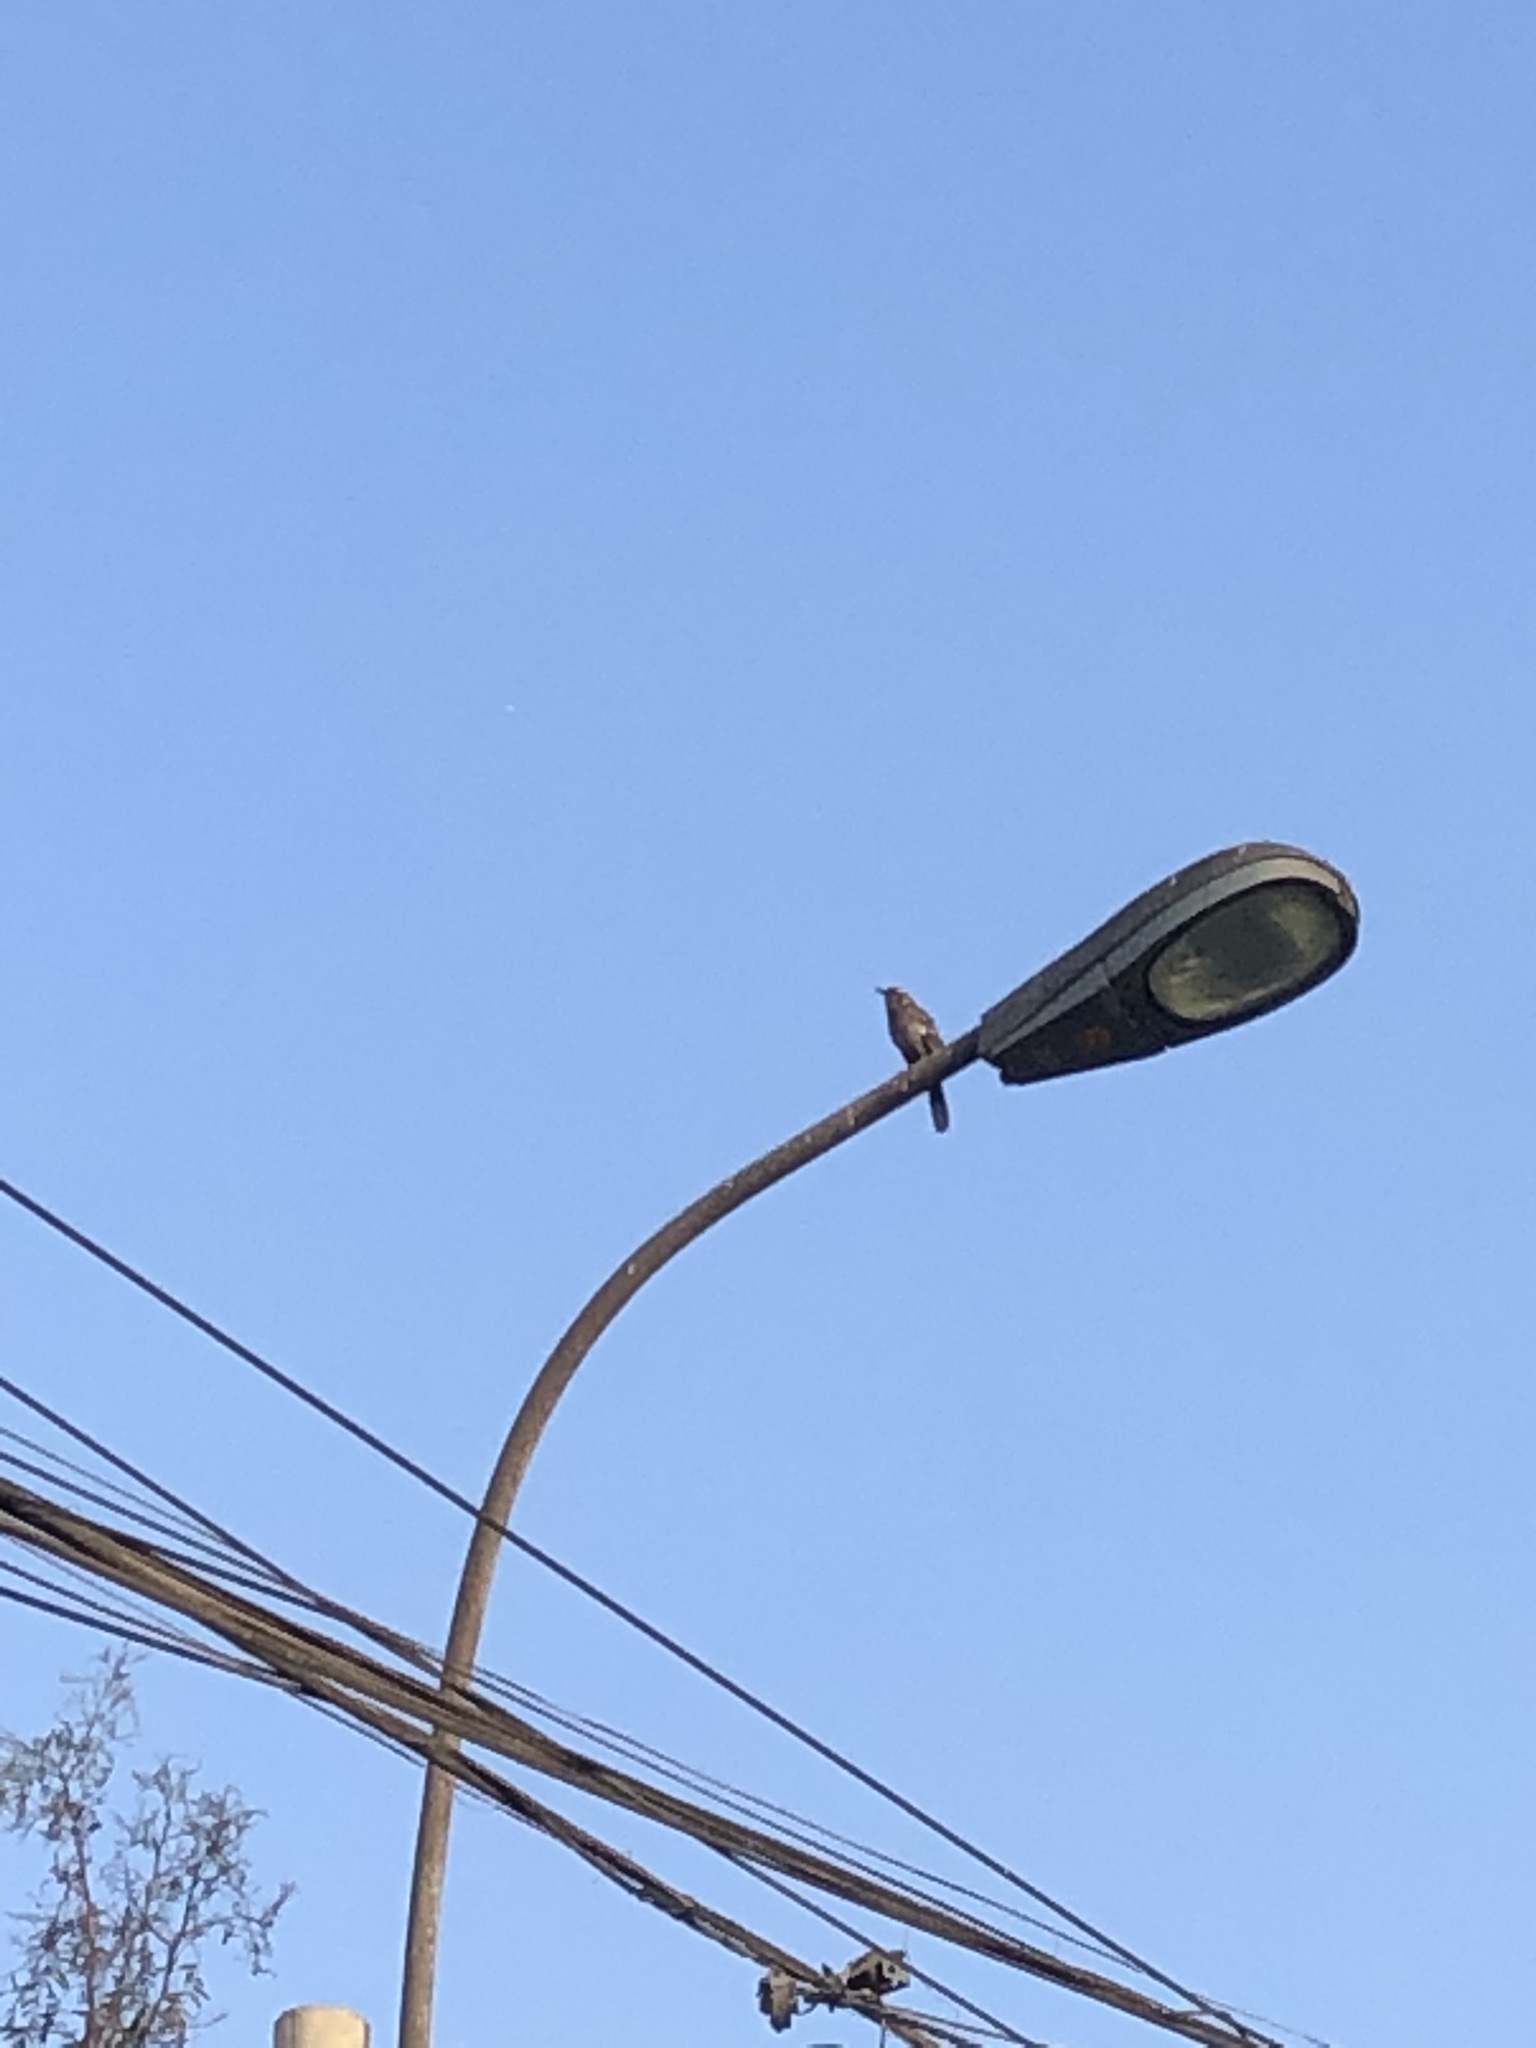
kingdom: Animalia
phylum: Chordata
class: Aves
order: Passeriformes
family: Mimidae
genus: Mimus
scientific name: Mimus longicaudatus
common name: Long-tailed mockingbird
